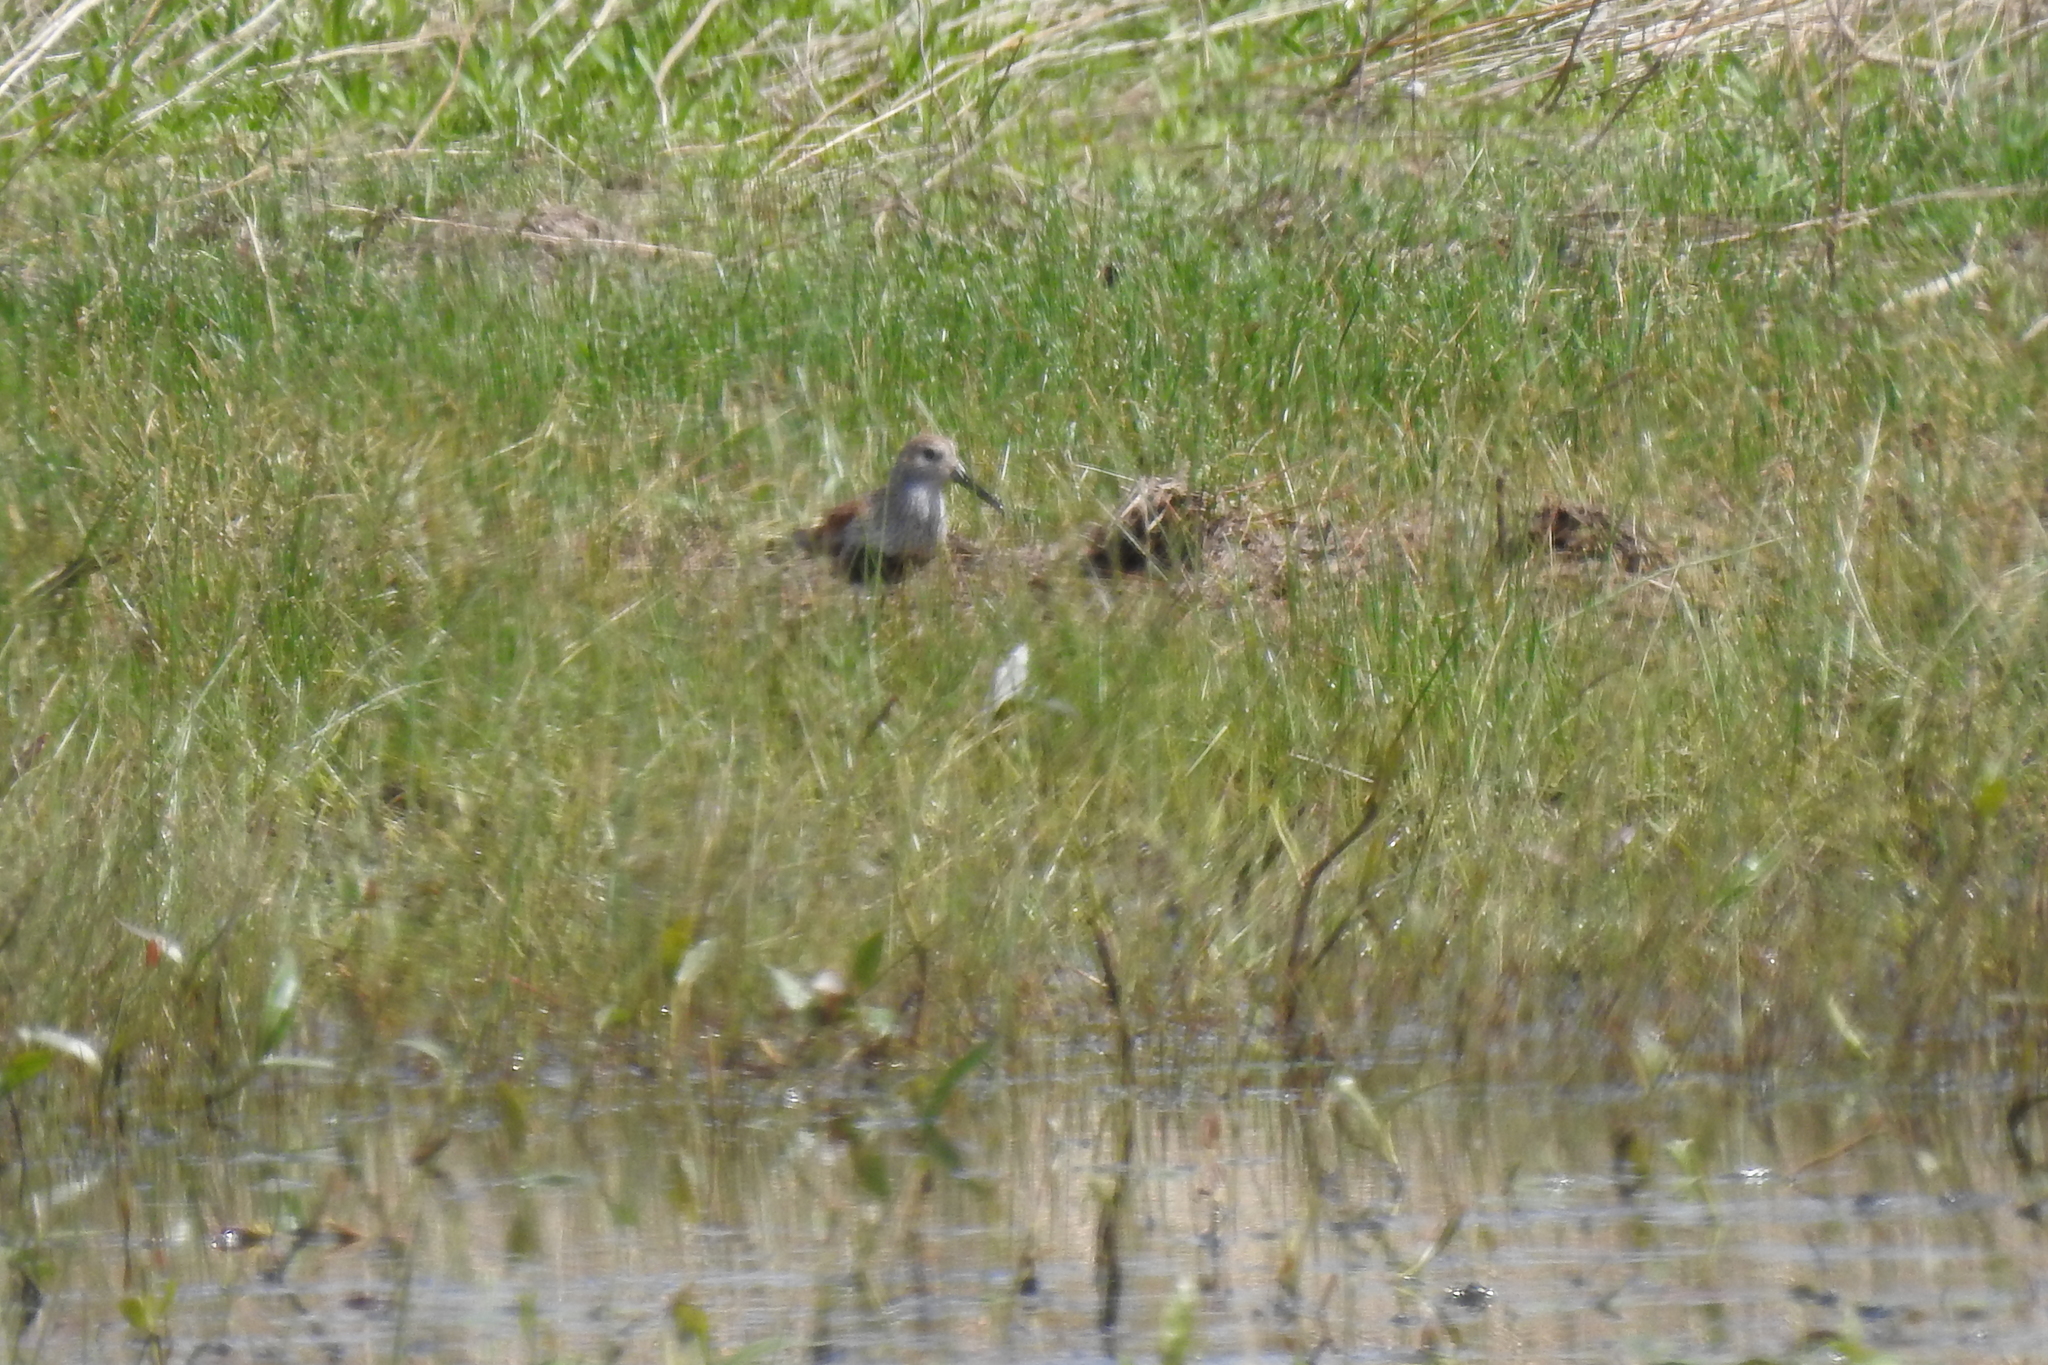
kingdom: Animalia
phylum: Chordata
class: Aves
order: Charadriiformes
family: Scolopacidae
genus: Calidris
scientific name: Calidris alpina
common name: Dunlin
